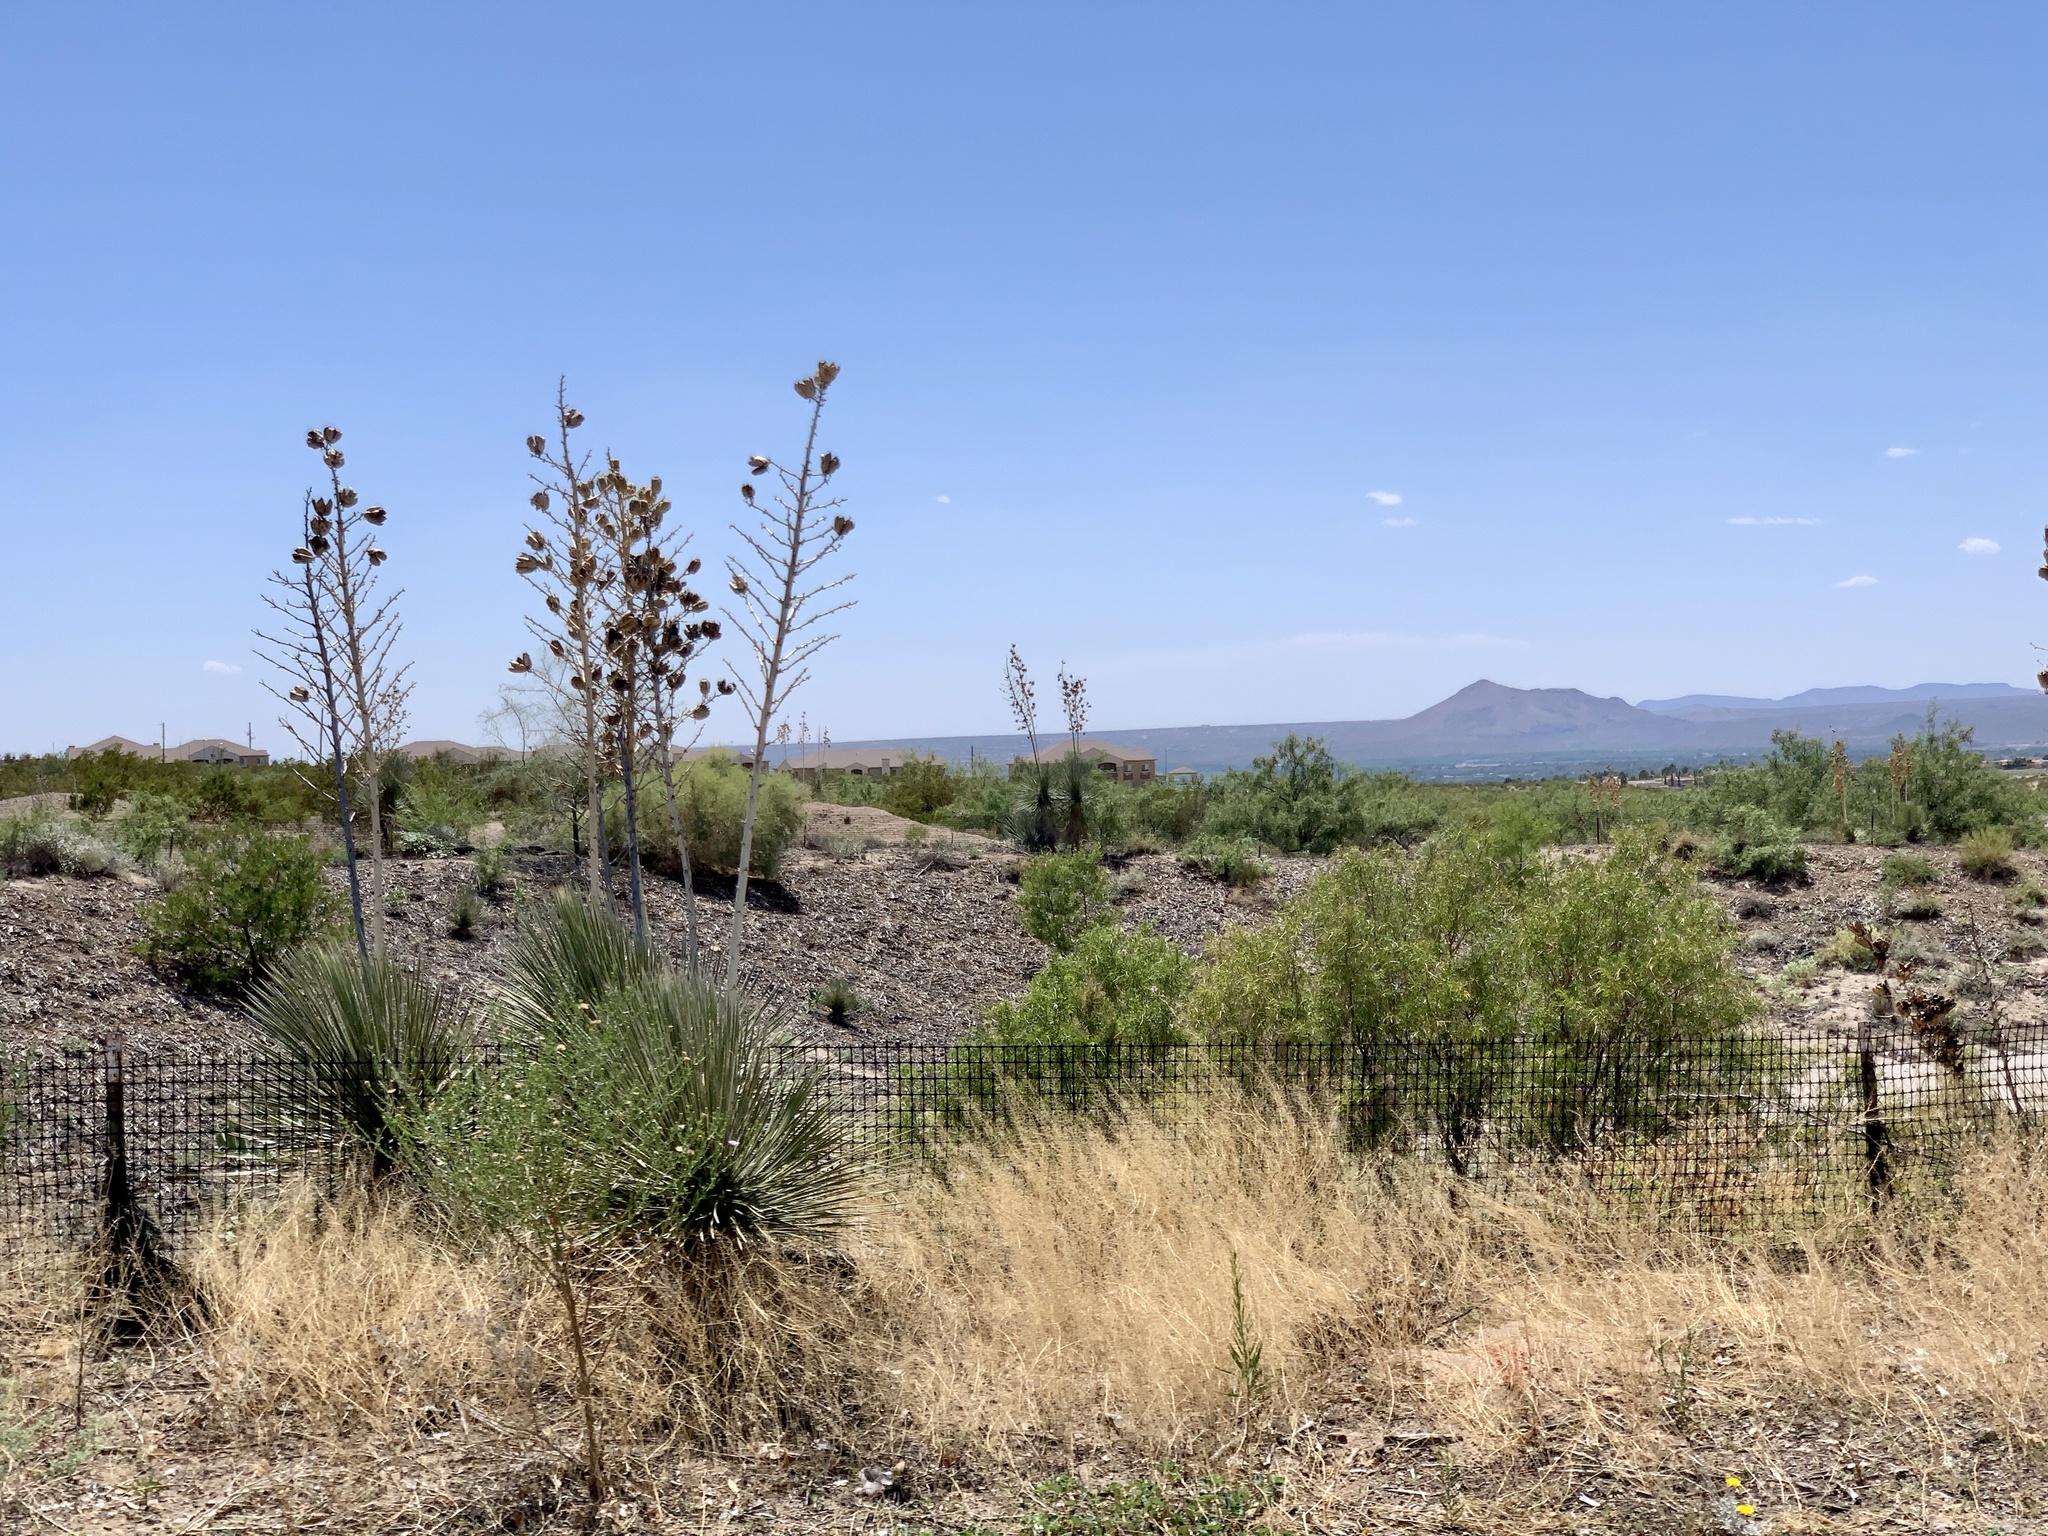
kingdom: Plantae
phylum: Tracheophyta
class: Liliopsida
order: Asparagales
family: Asparagaceae
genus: Yucca
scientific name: Yucca elata
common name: Palmella
